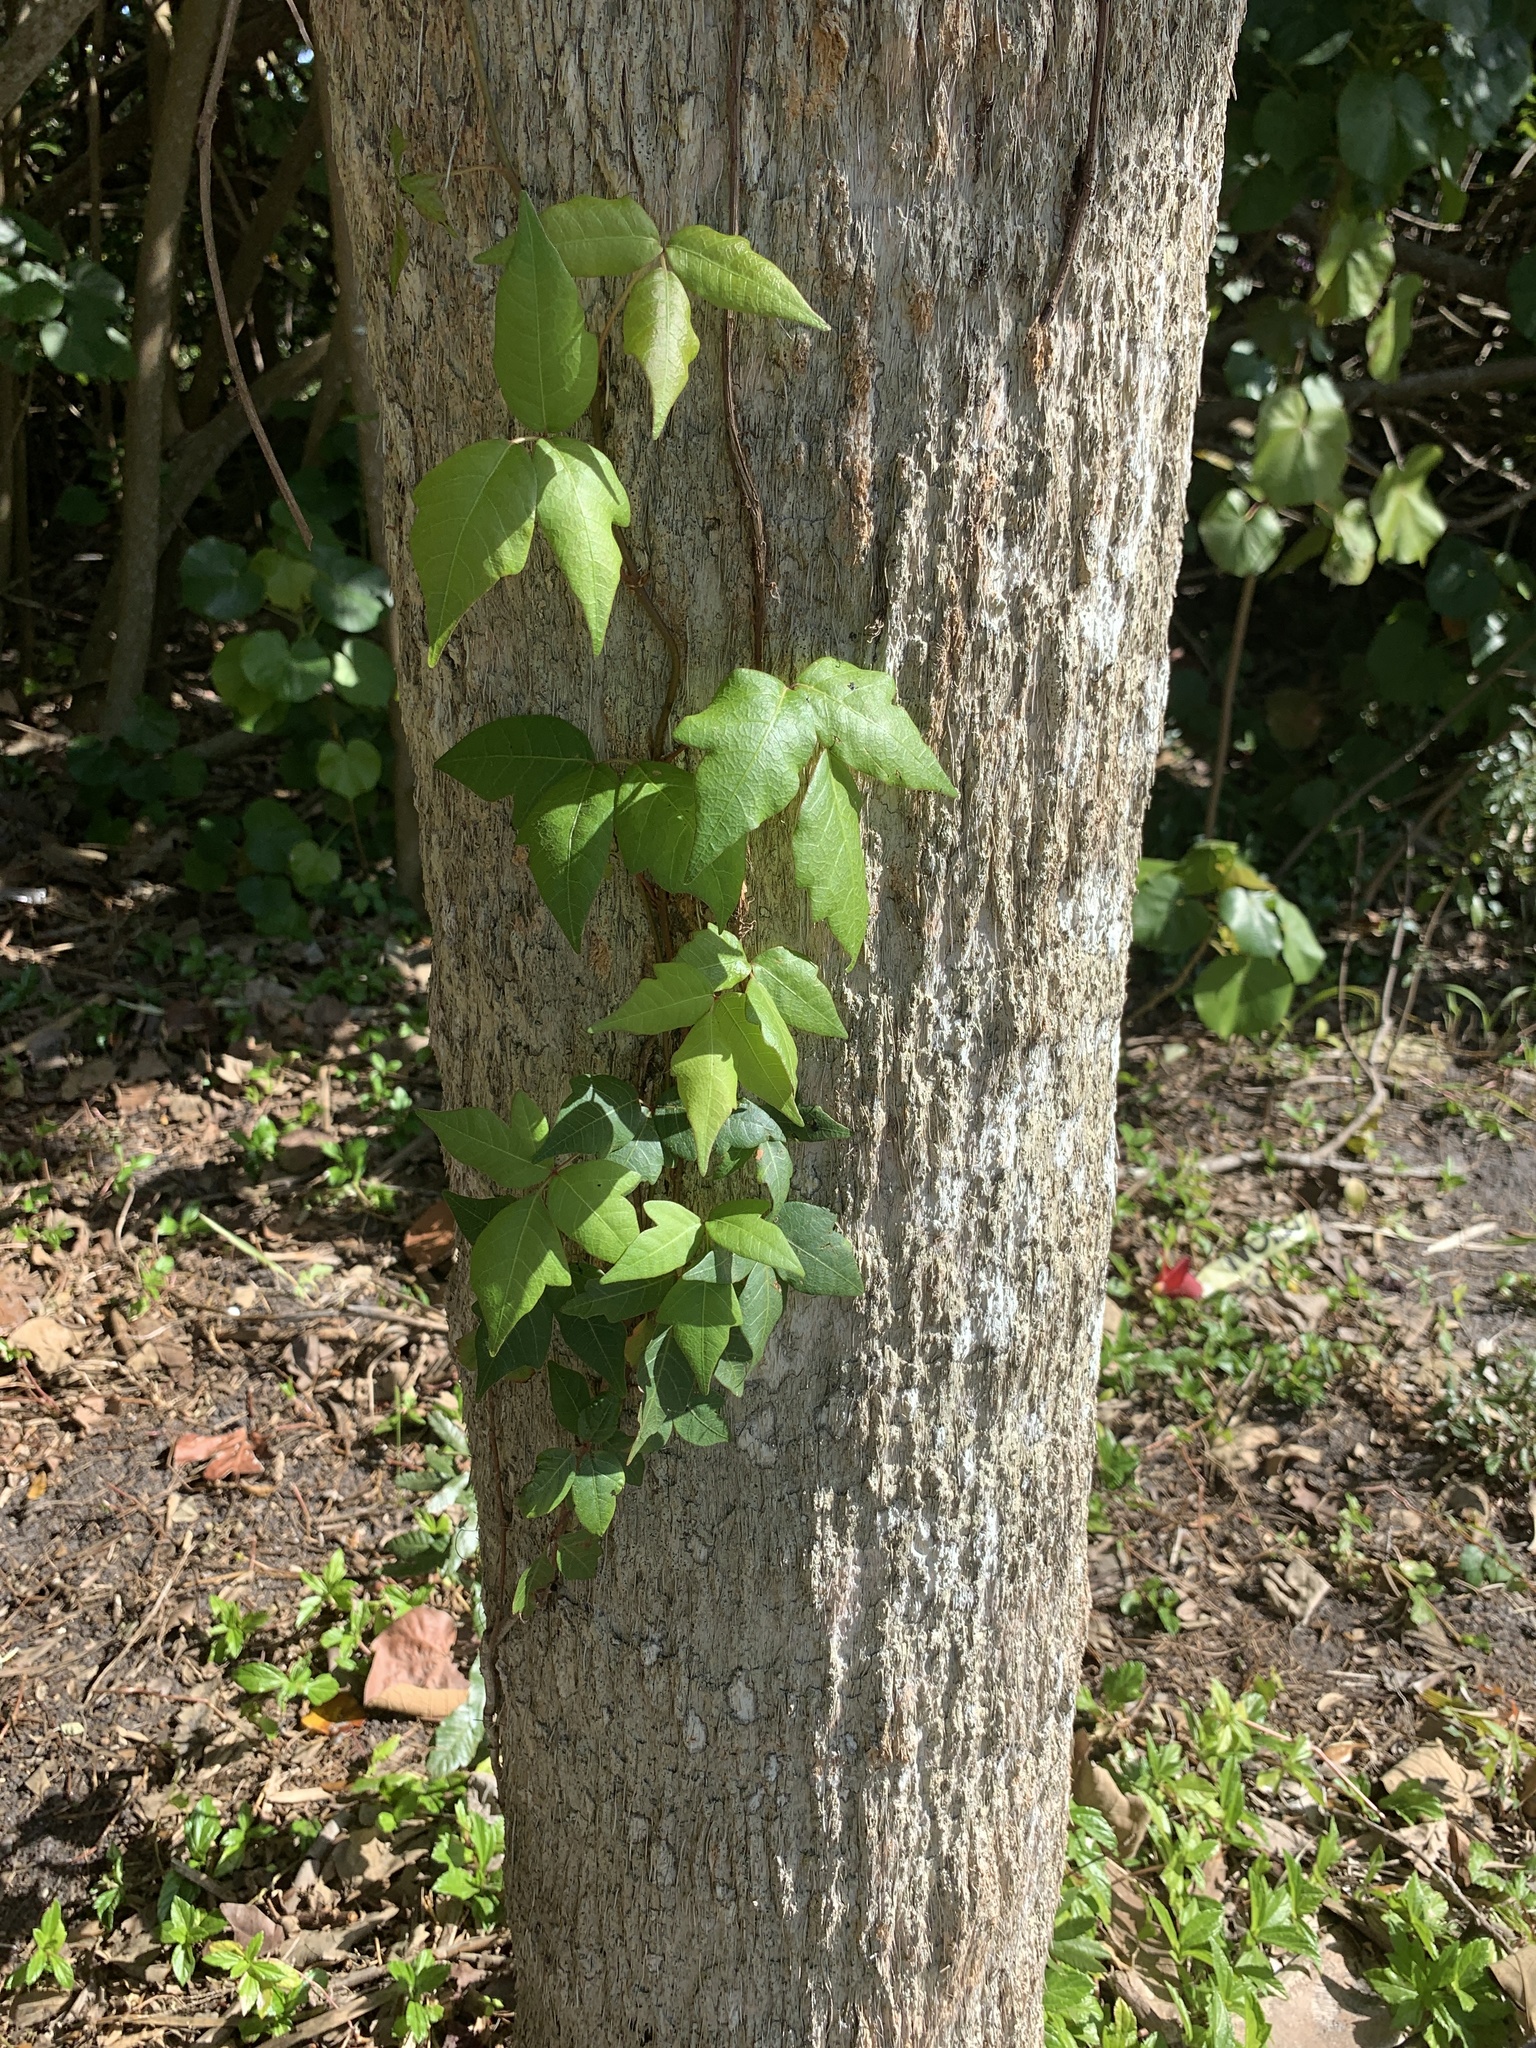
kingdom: Plantae
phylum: Tracheophyta
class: Magnoliopsida
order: Sapindales
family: Anacardiaceae
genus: Toxicodendron
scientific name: Toxicodendron radicans
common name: Poison ivy
